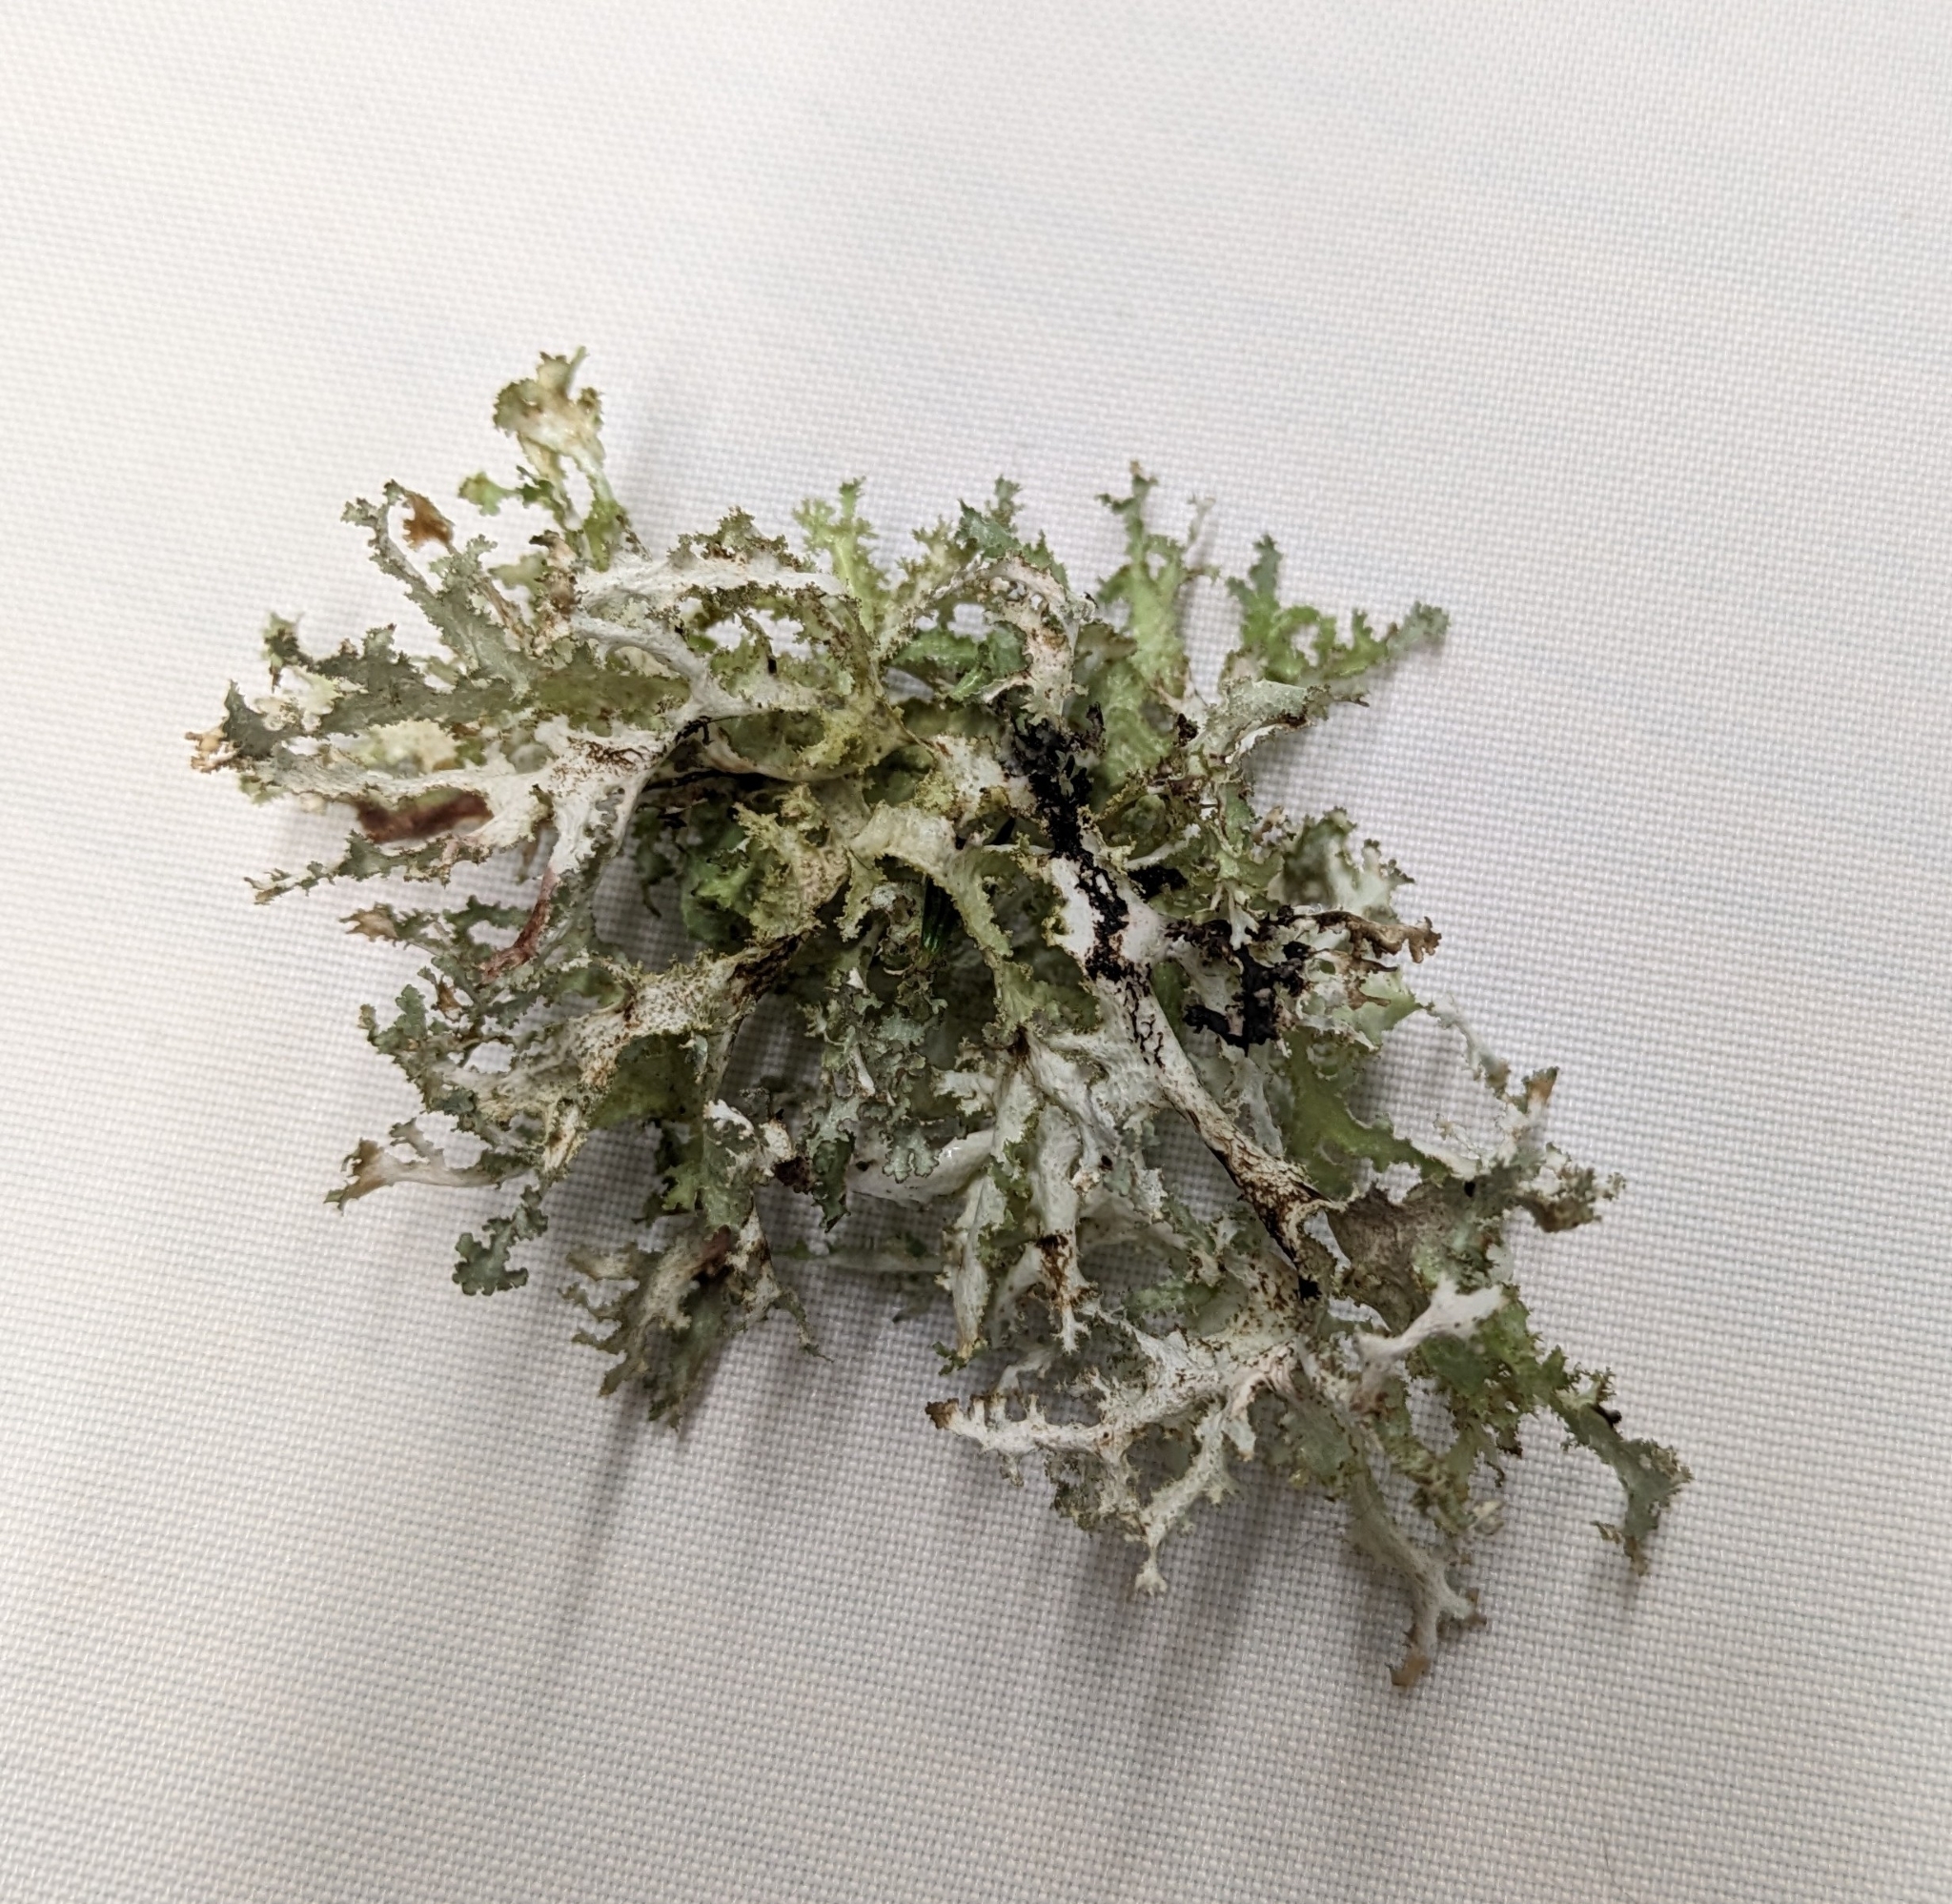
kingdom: Fungi
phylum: Ascomycota
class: Lecanoromycetes
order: Lecanorales
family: Parmeliaceae
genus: Platismatia
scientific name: Platismatia herrei
